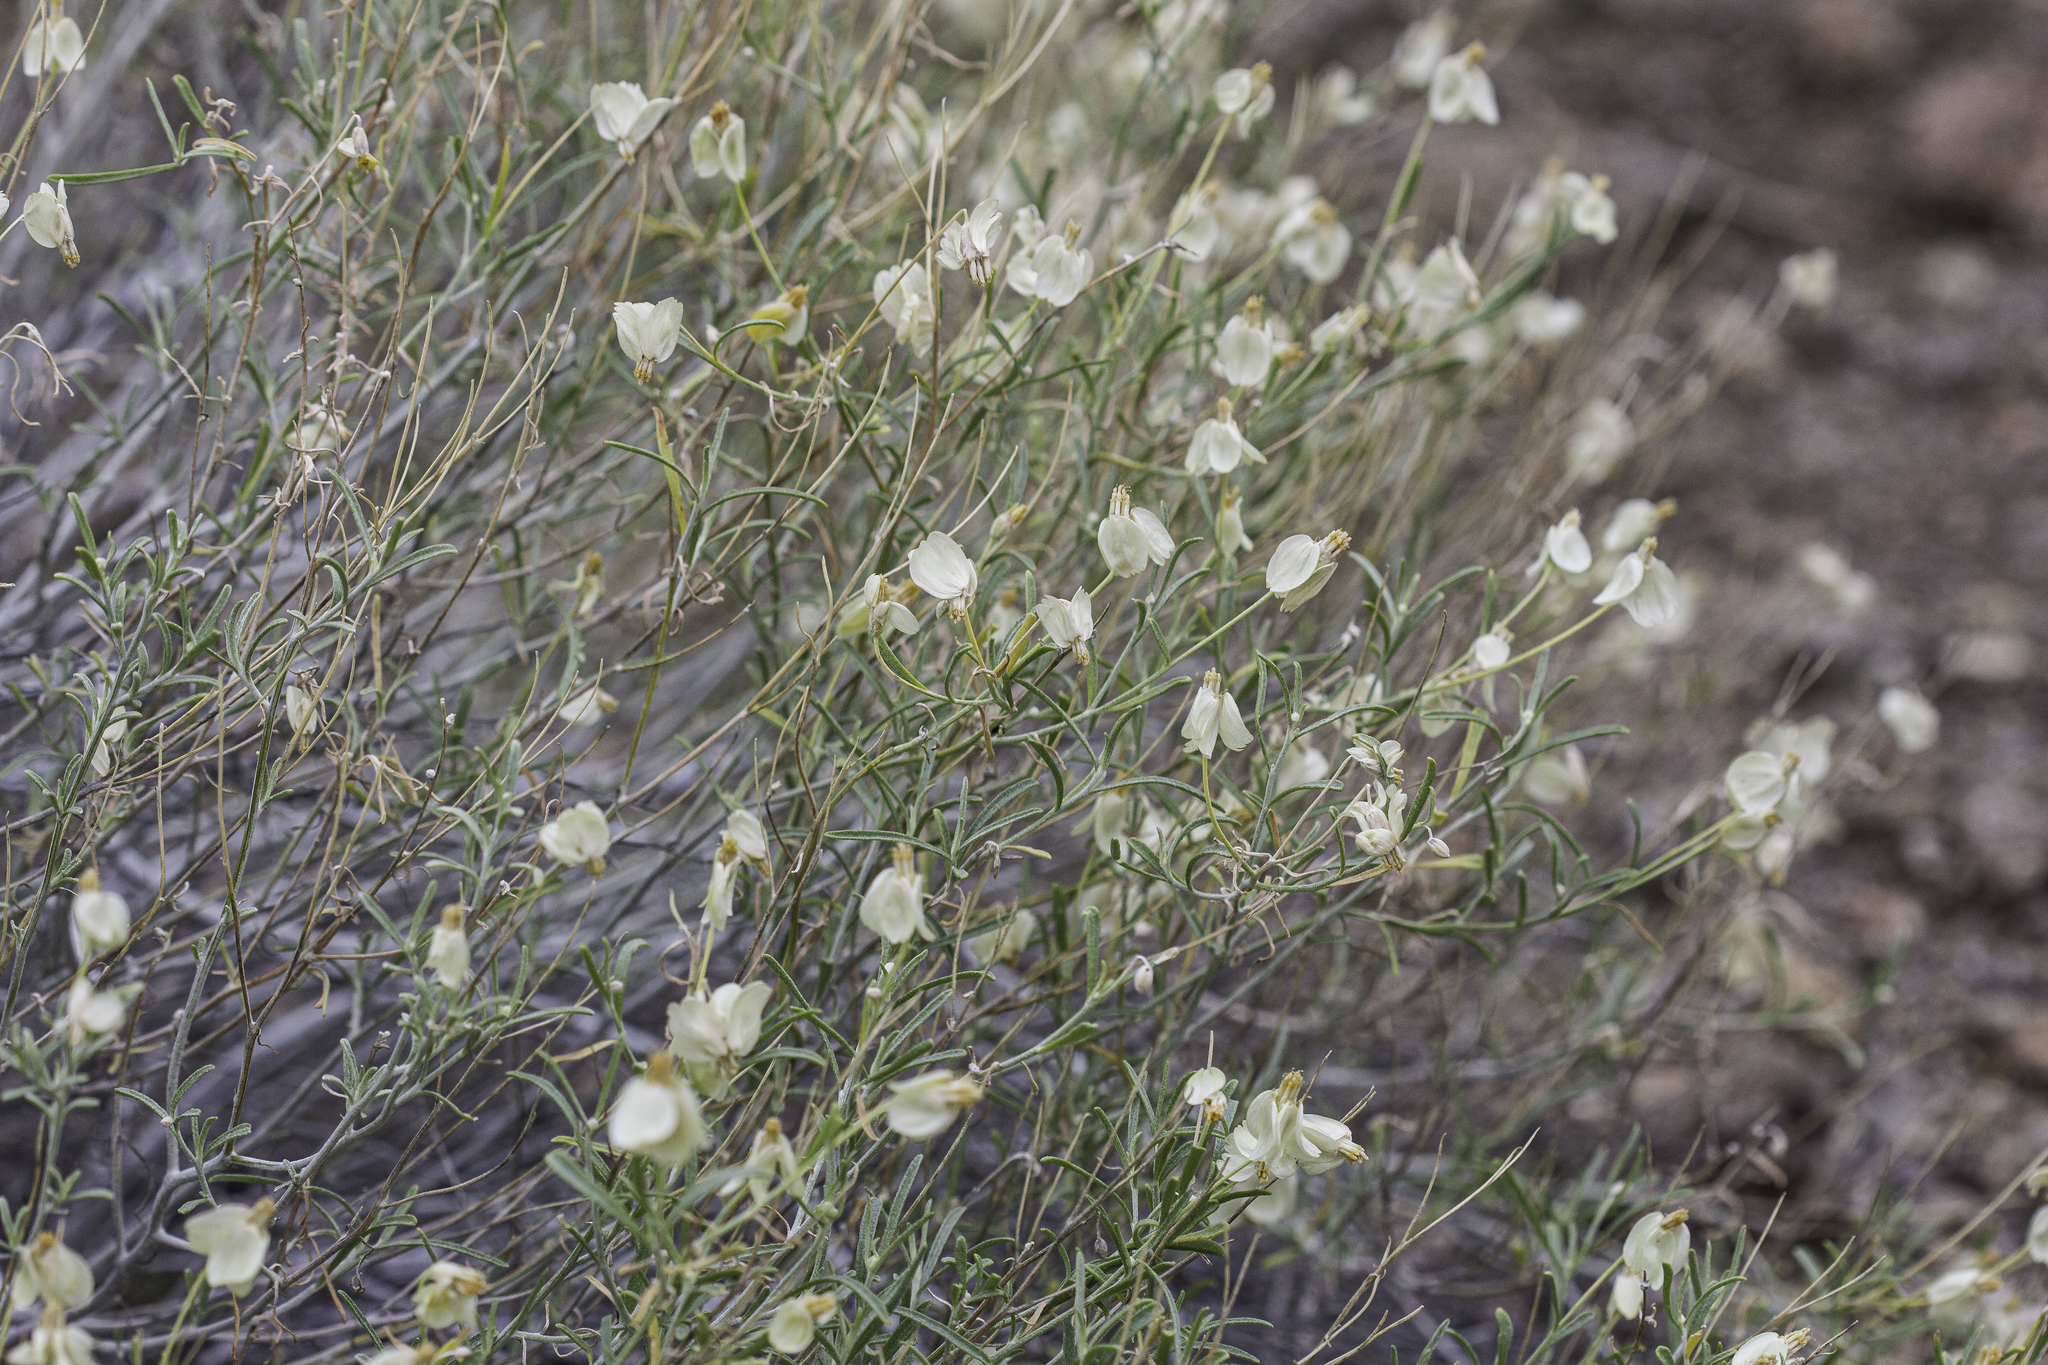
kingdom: Plantae
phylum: Tracheophyta
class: Magnoliopsida
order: Asterales
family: Asteraceae
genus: Psilostrophe
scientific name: Psilostrophe cooperi
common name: White-stem paper-flower
